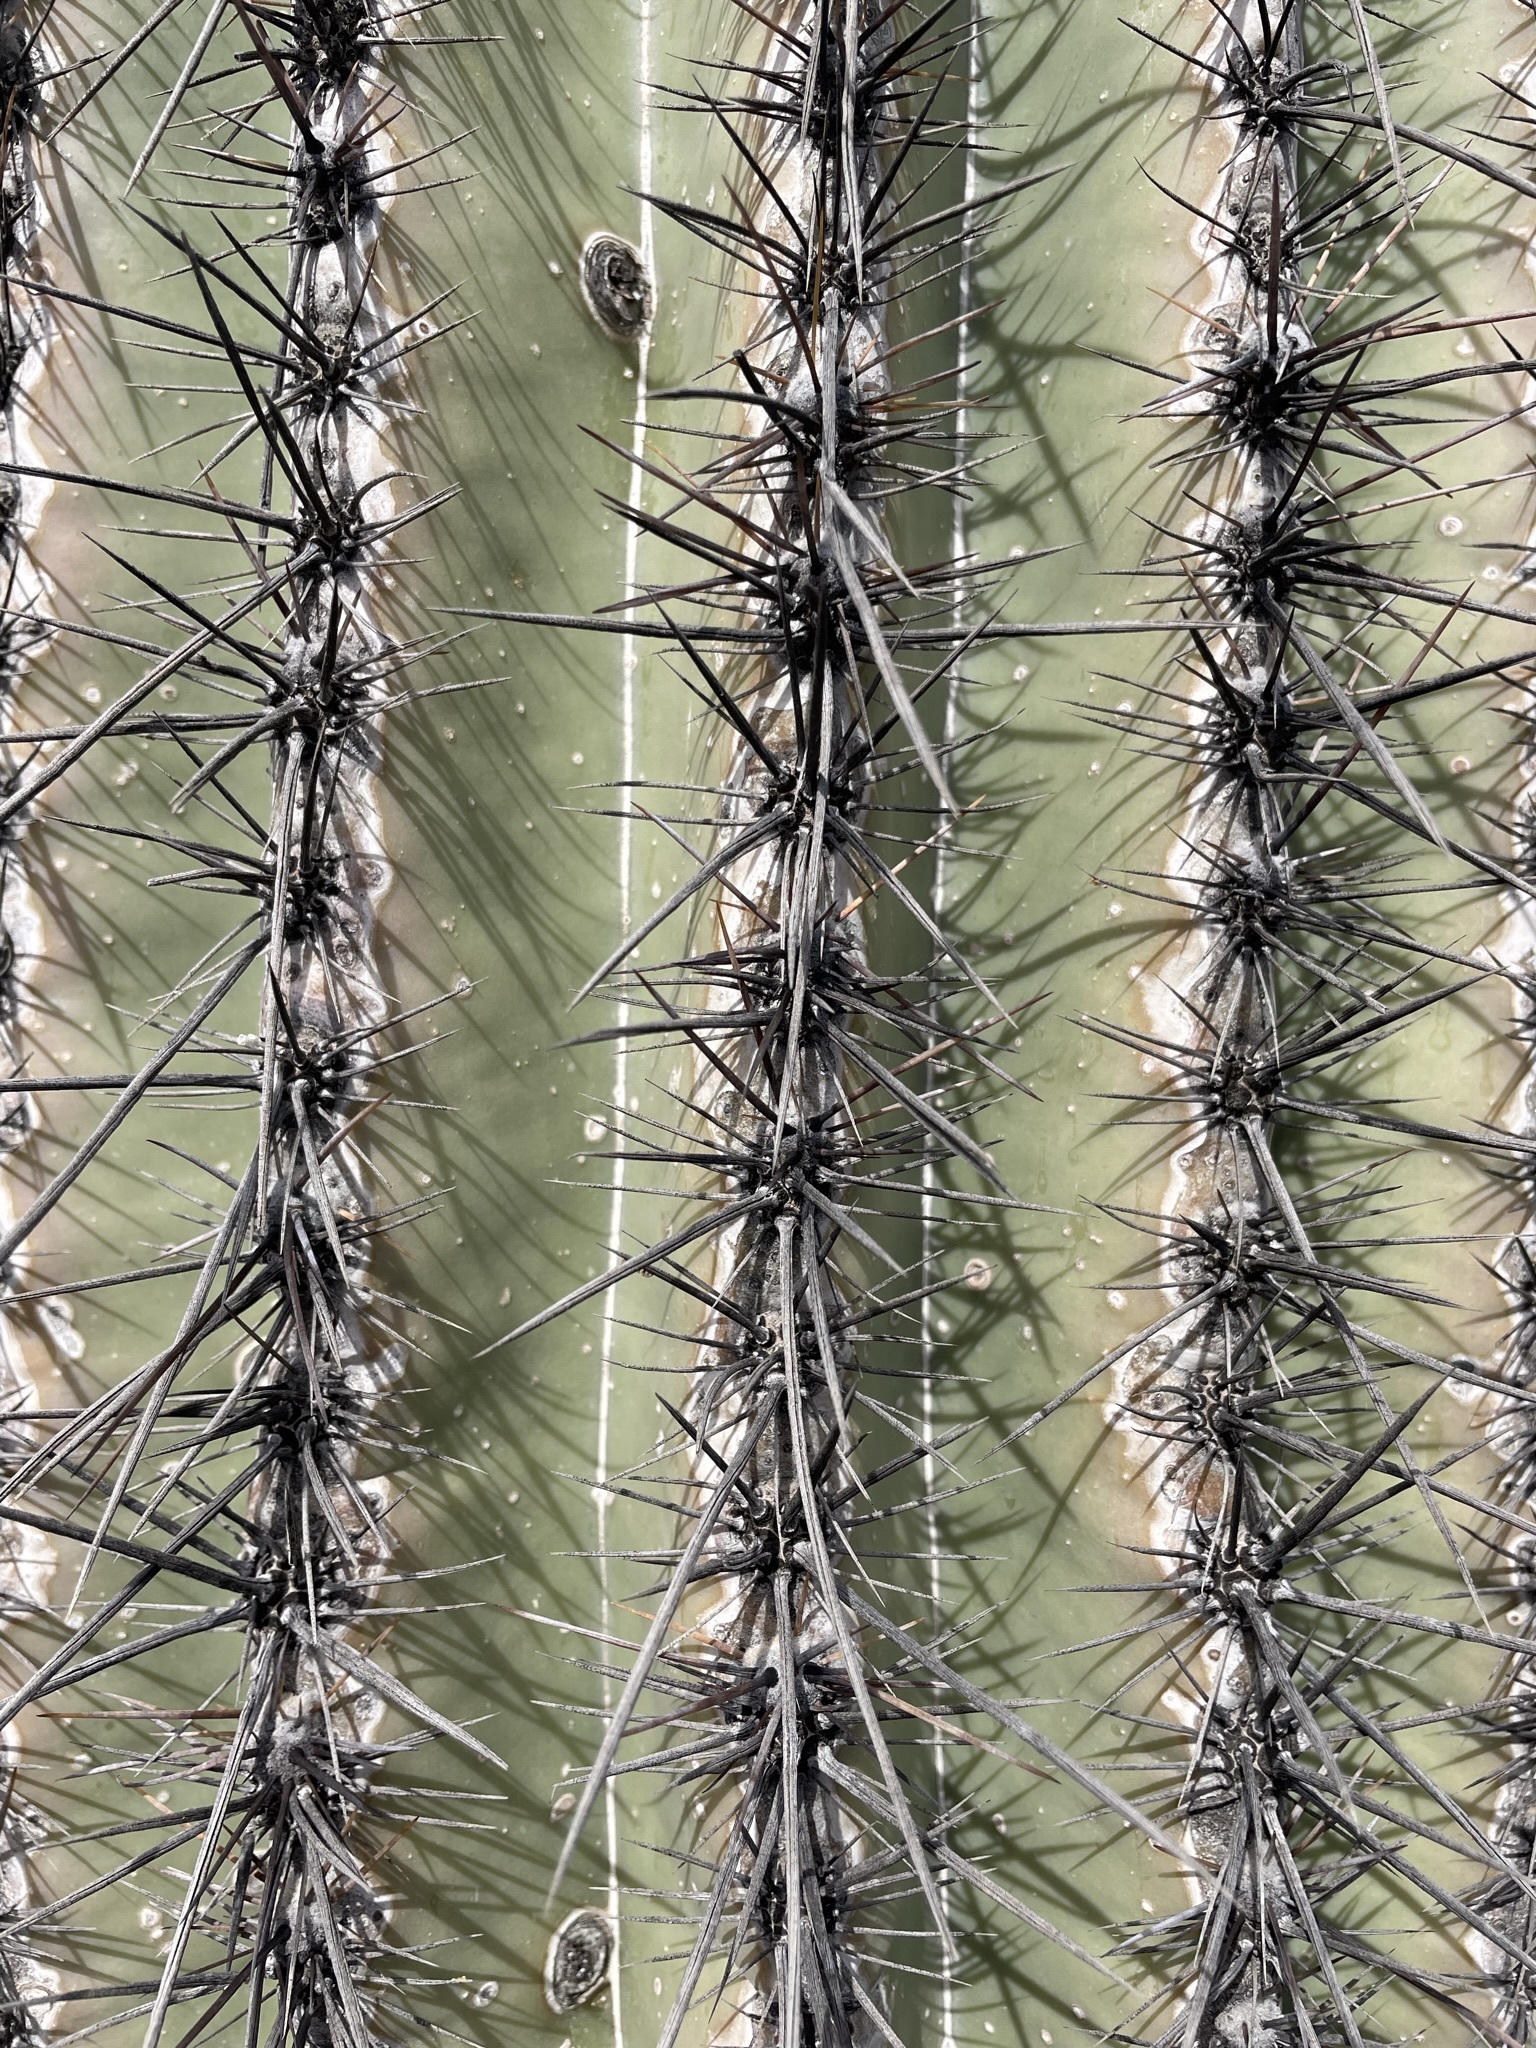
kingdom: Plantae
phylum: Tracheophyta
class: Magnoliopsida
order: Caryophyllales
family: Cactaceae
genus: Carnegiea
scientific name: Carnegiea gigantea
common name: Saguaro
